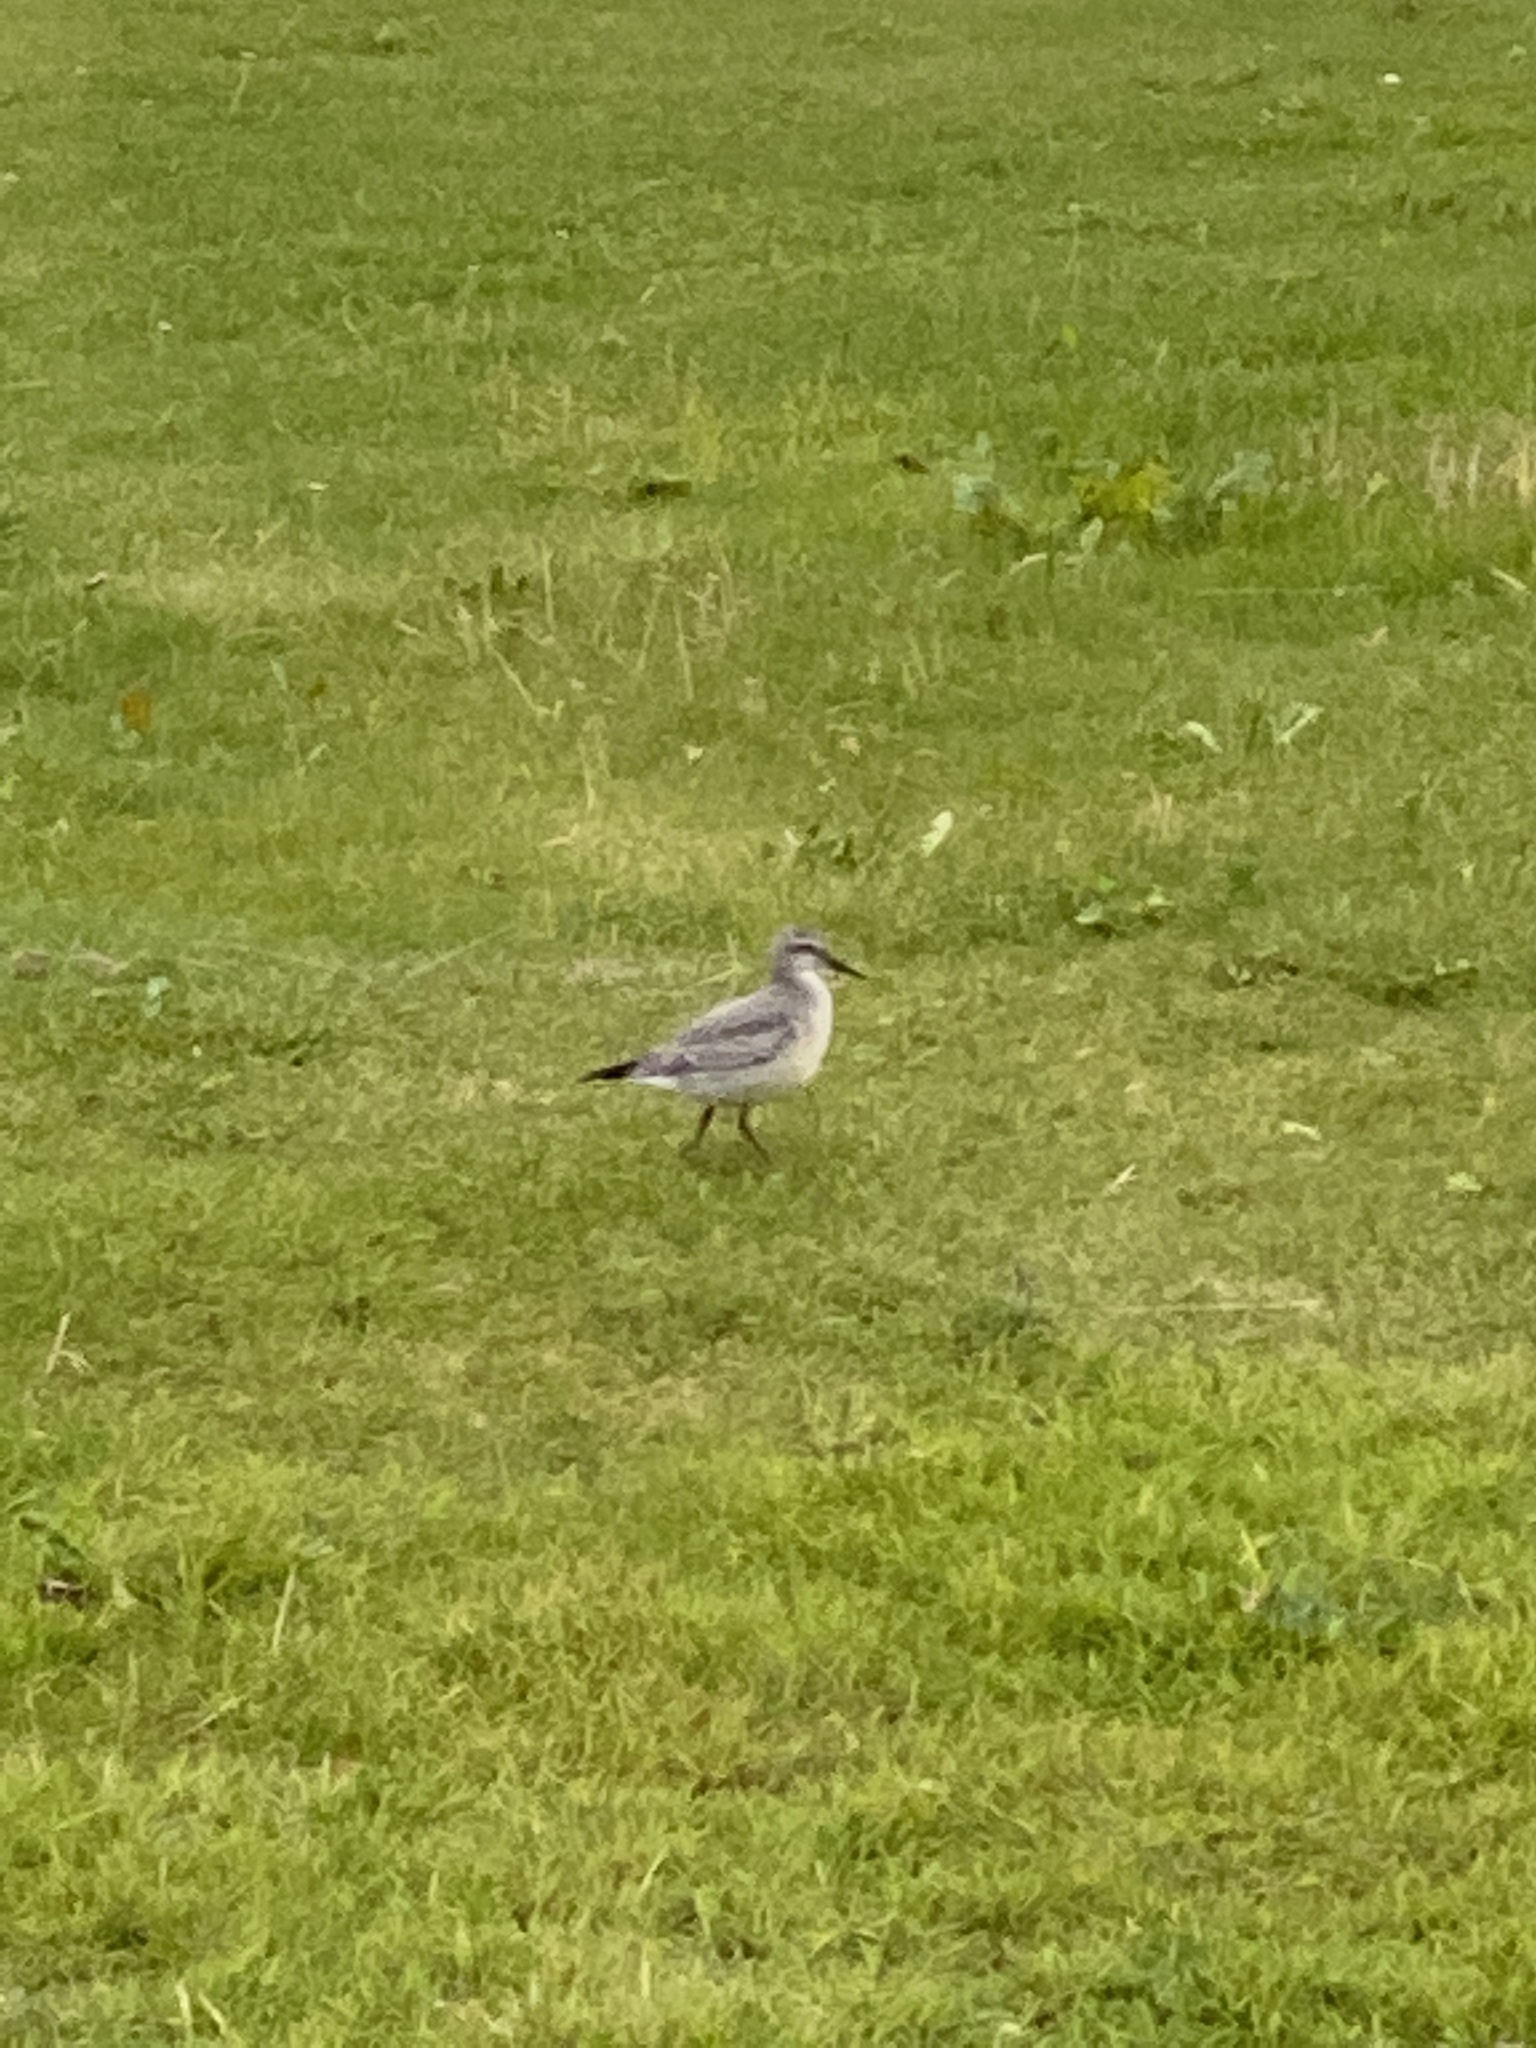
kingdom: Animalia
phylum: Chordata
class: Aves
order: Charadriiformes
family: Scolopacidae
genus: Calidris
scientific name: Calidris canutus
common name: Red knot
